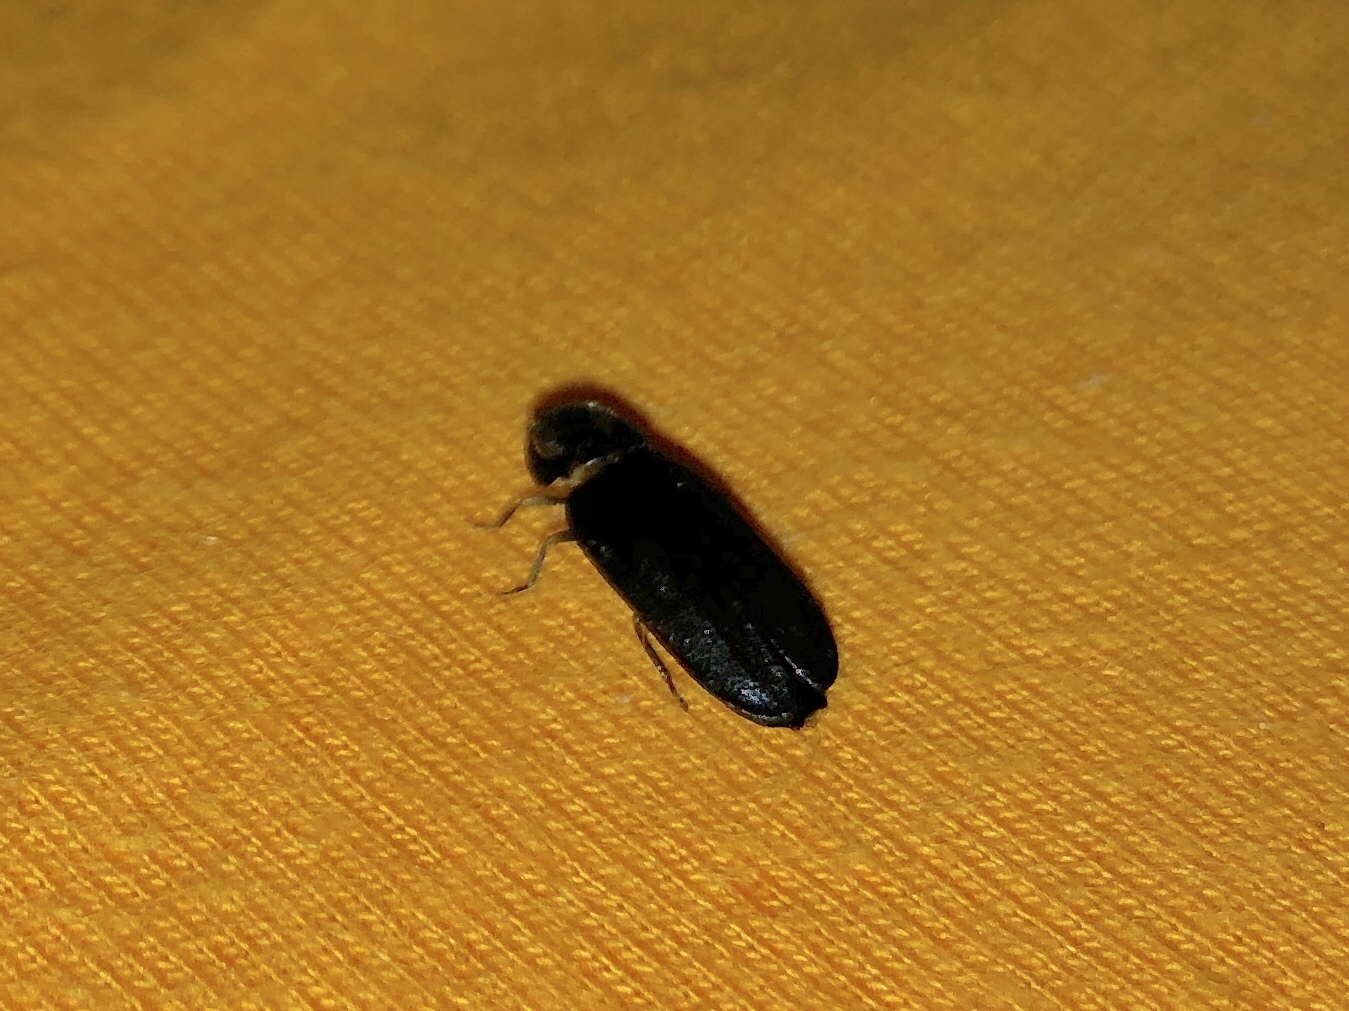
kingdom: Animalia
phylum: Arthropoda
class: Insecta
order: Coleoptera
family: Lampyridae
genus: Lamprohiza
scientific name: Lamprohiza splendidula
